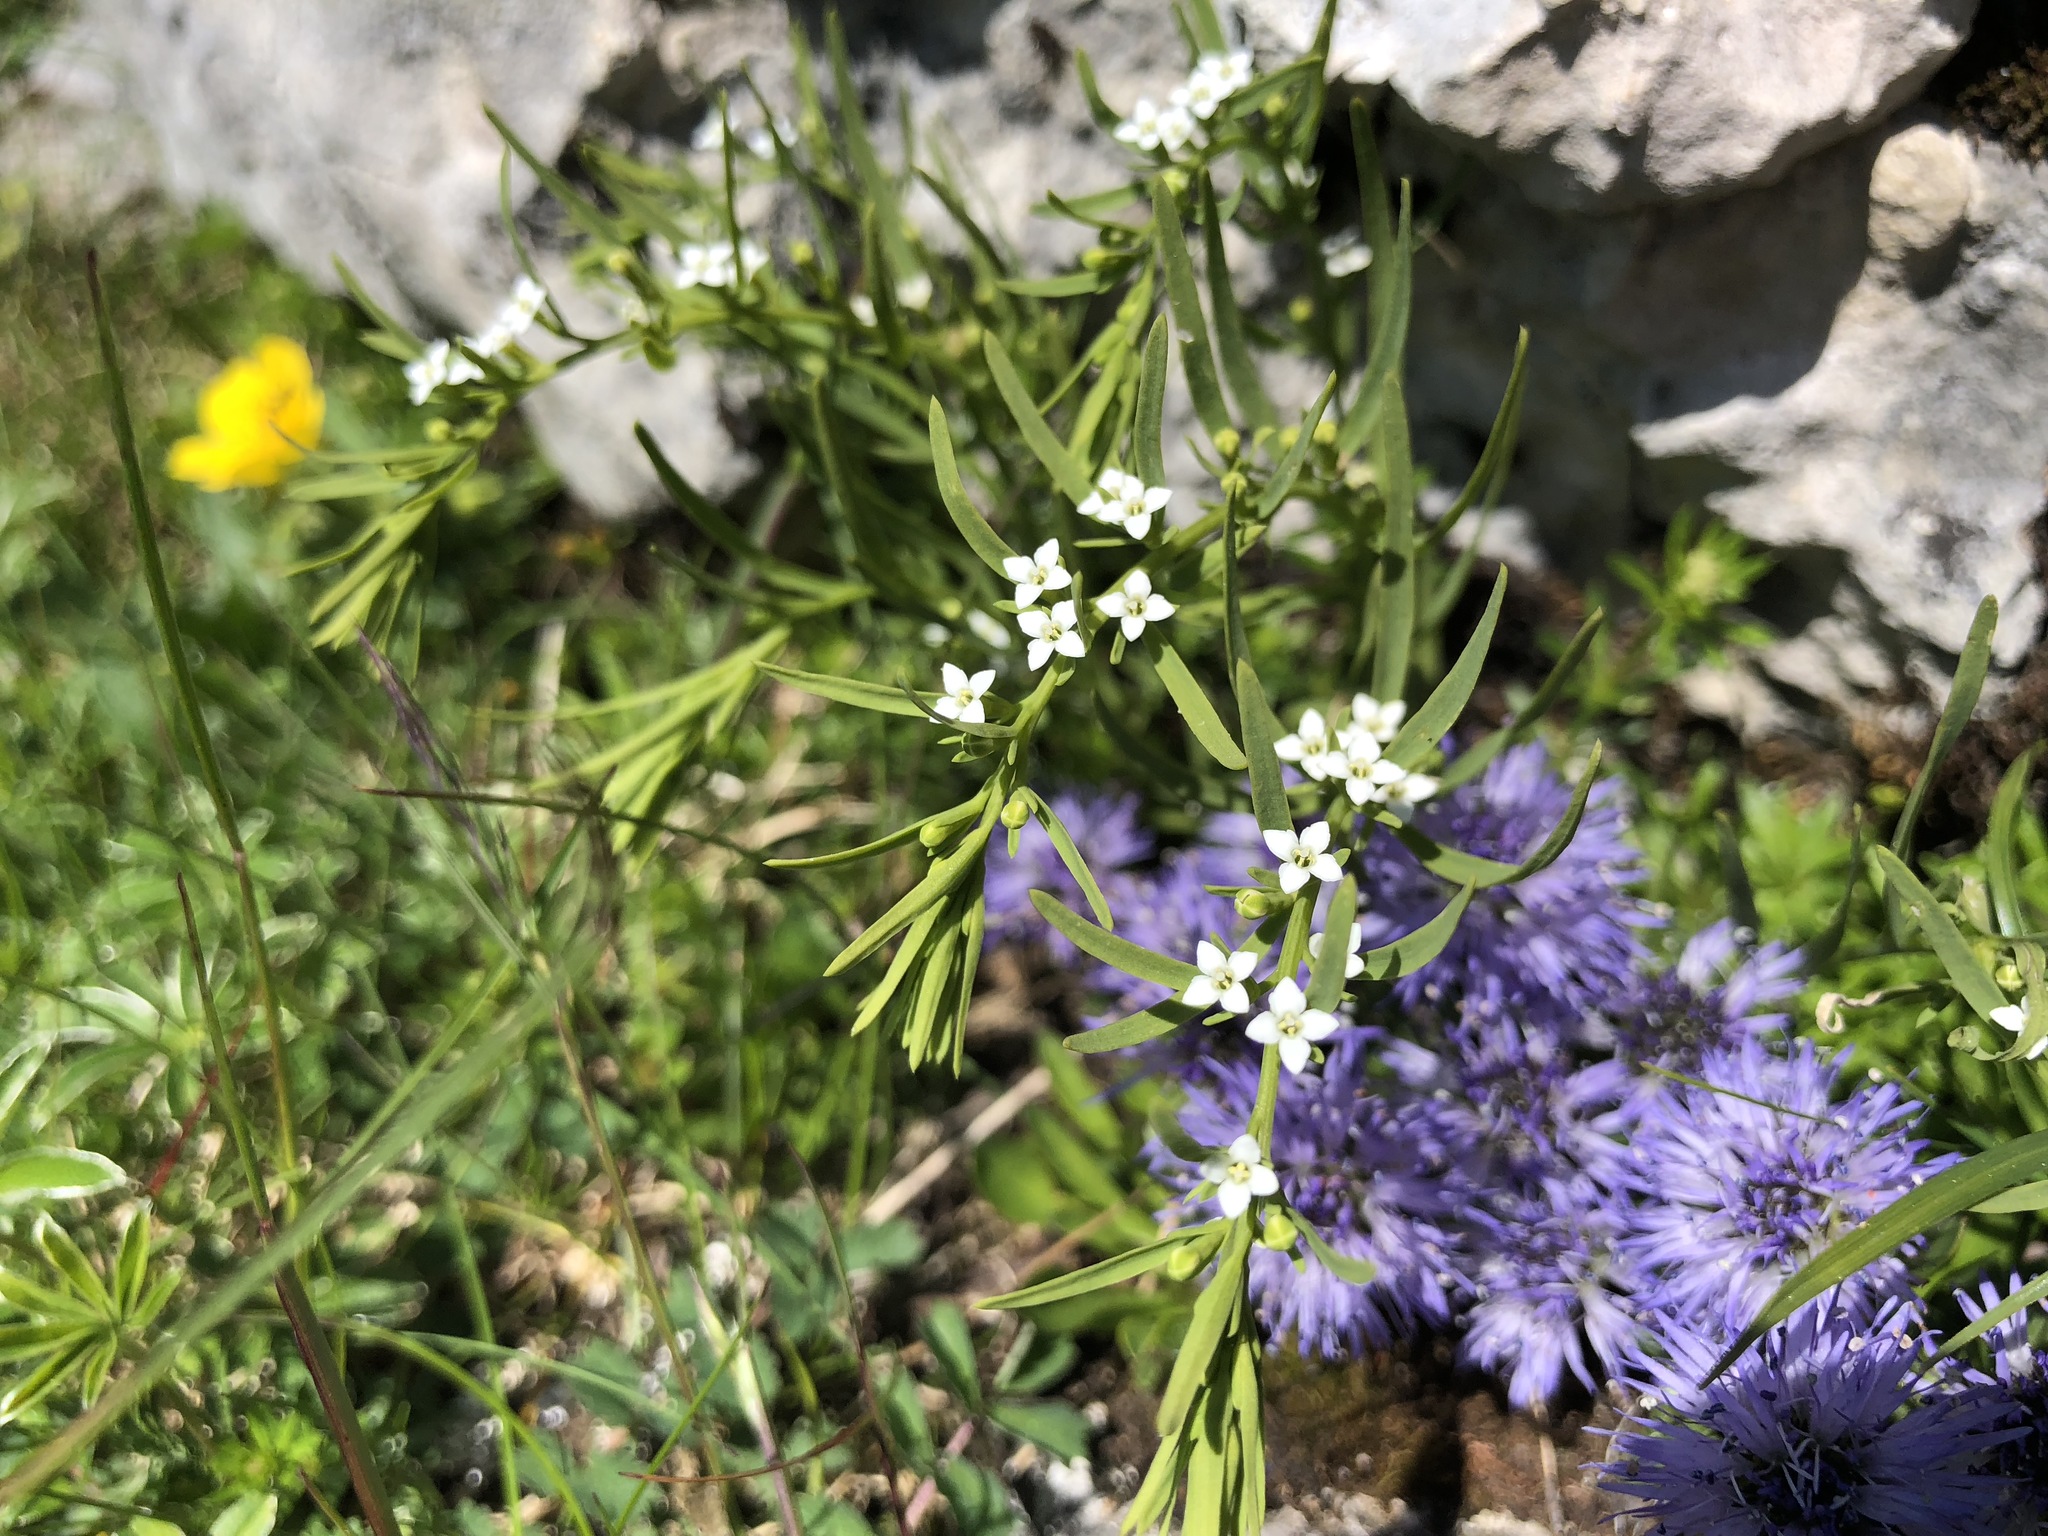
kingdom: Plantae
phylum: Tracheophyta
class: Magnoliopsida
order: Santalales
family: Thesiaceae
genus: Thesium
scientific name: Thesium alpinum
